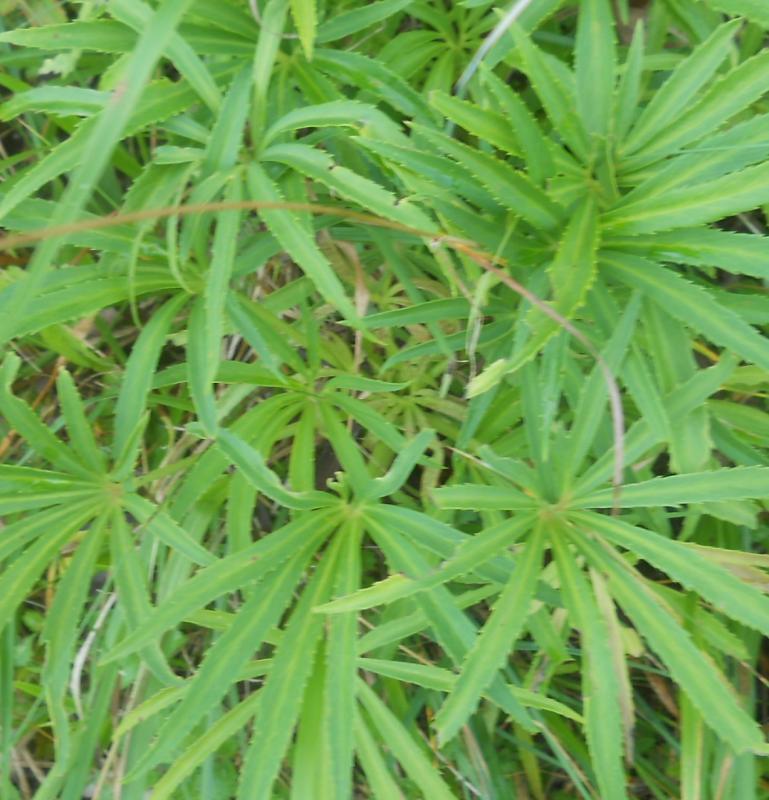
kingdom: Plantae
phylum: Tracheophyta
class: Magnoliopsida
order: Ranunculales
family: Ranunculaceae
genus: Helleborus
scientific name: Helleborus foetidus
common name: Stinking hellebore
